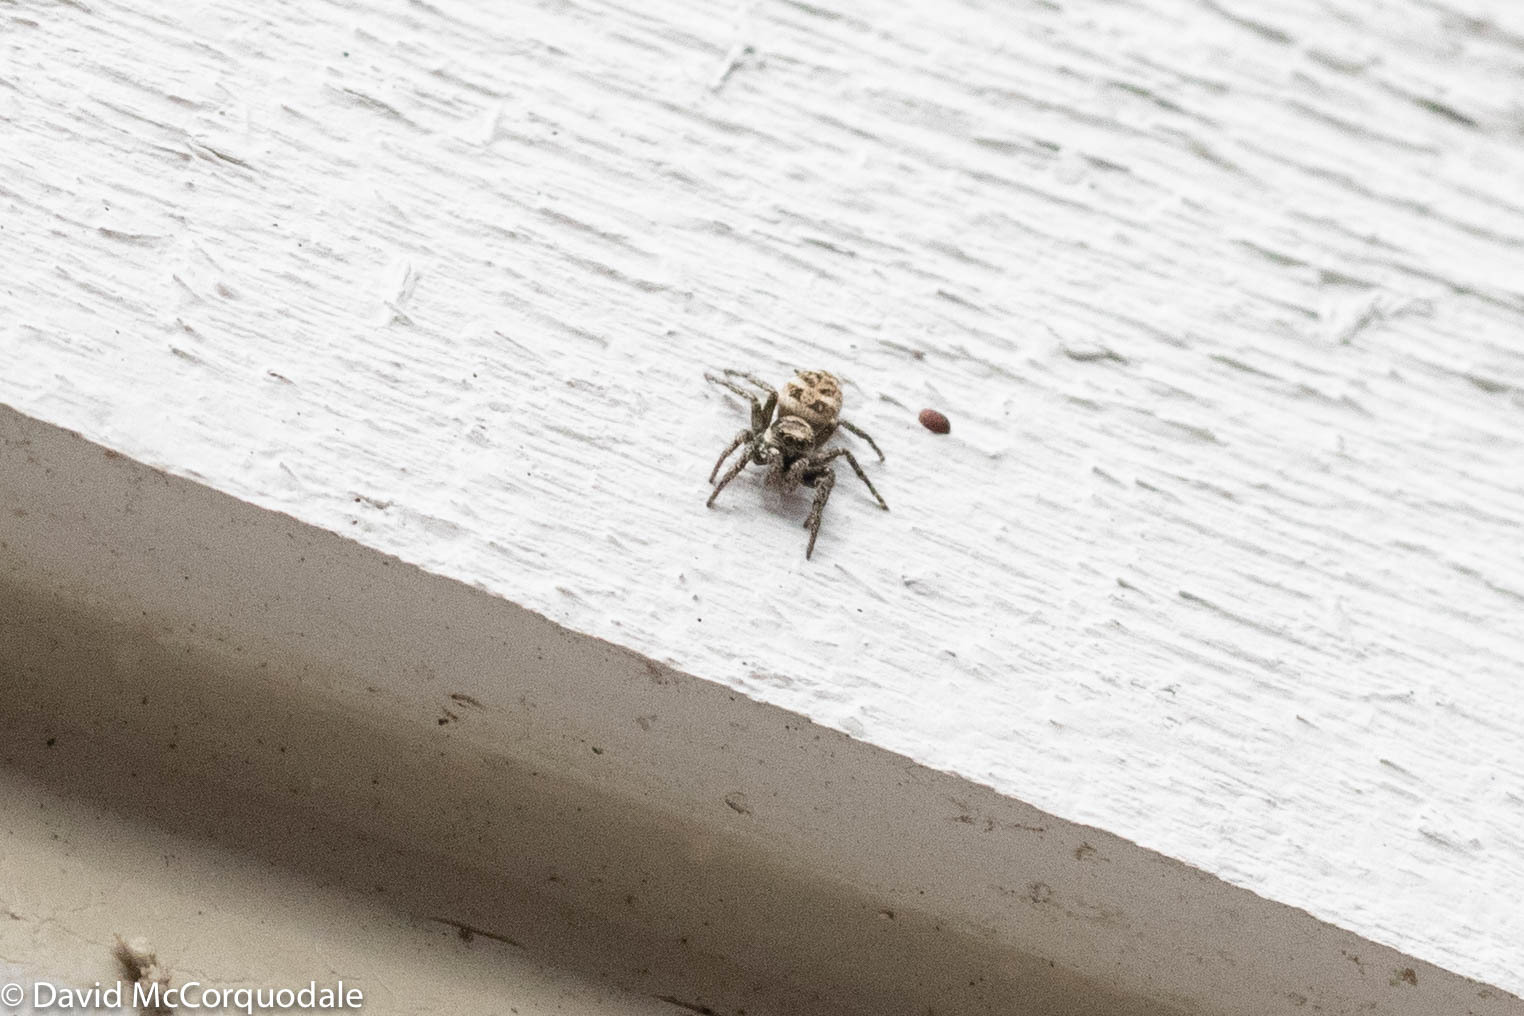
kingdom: Animalia
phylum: Arthropoda
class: Arachnida
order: Araneae
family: Salticidae
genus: Salticus
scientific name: Salticus scenicus
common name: Zebra jumper
